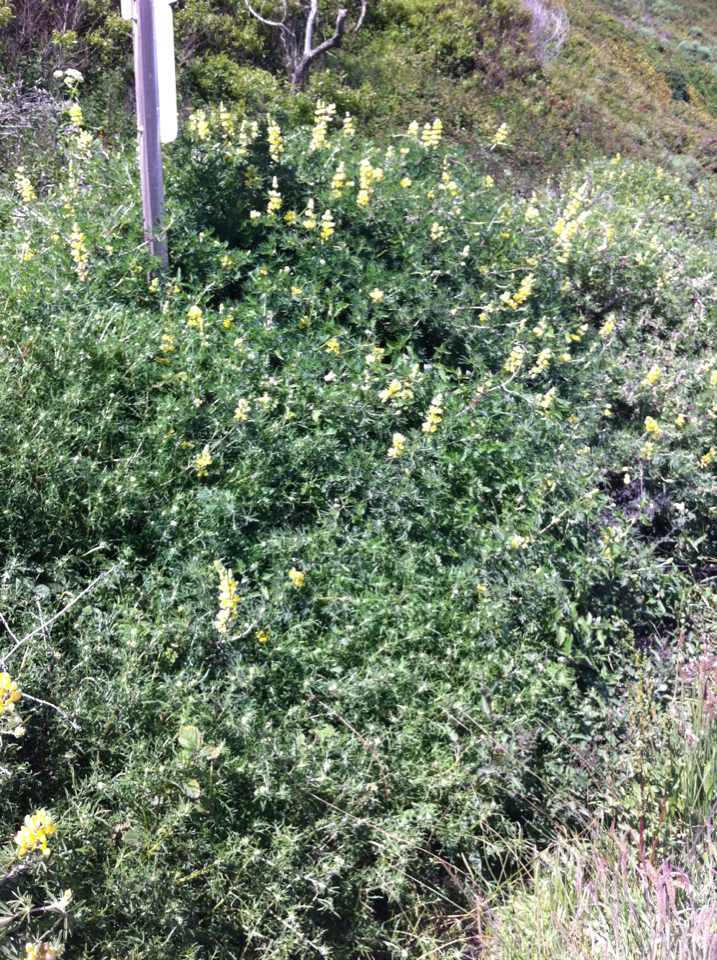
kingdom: Plantae
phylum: Tracheophyta
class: Magnoliopsida
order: Fabales
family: Fabaceae
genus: Lupinus
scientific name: Lupinus arboreus
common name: Yellow bush lupine
